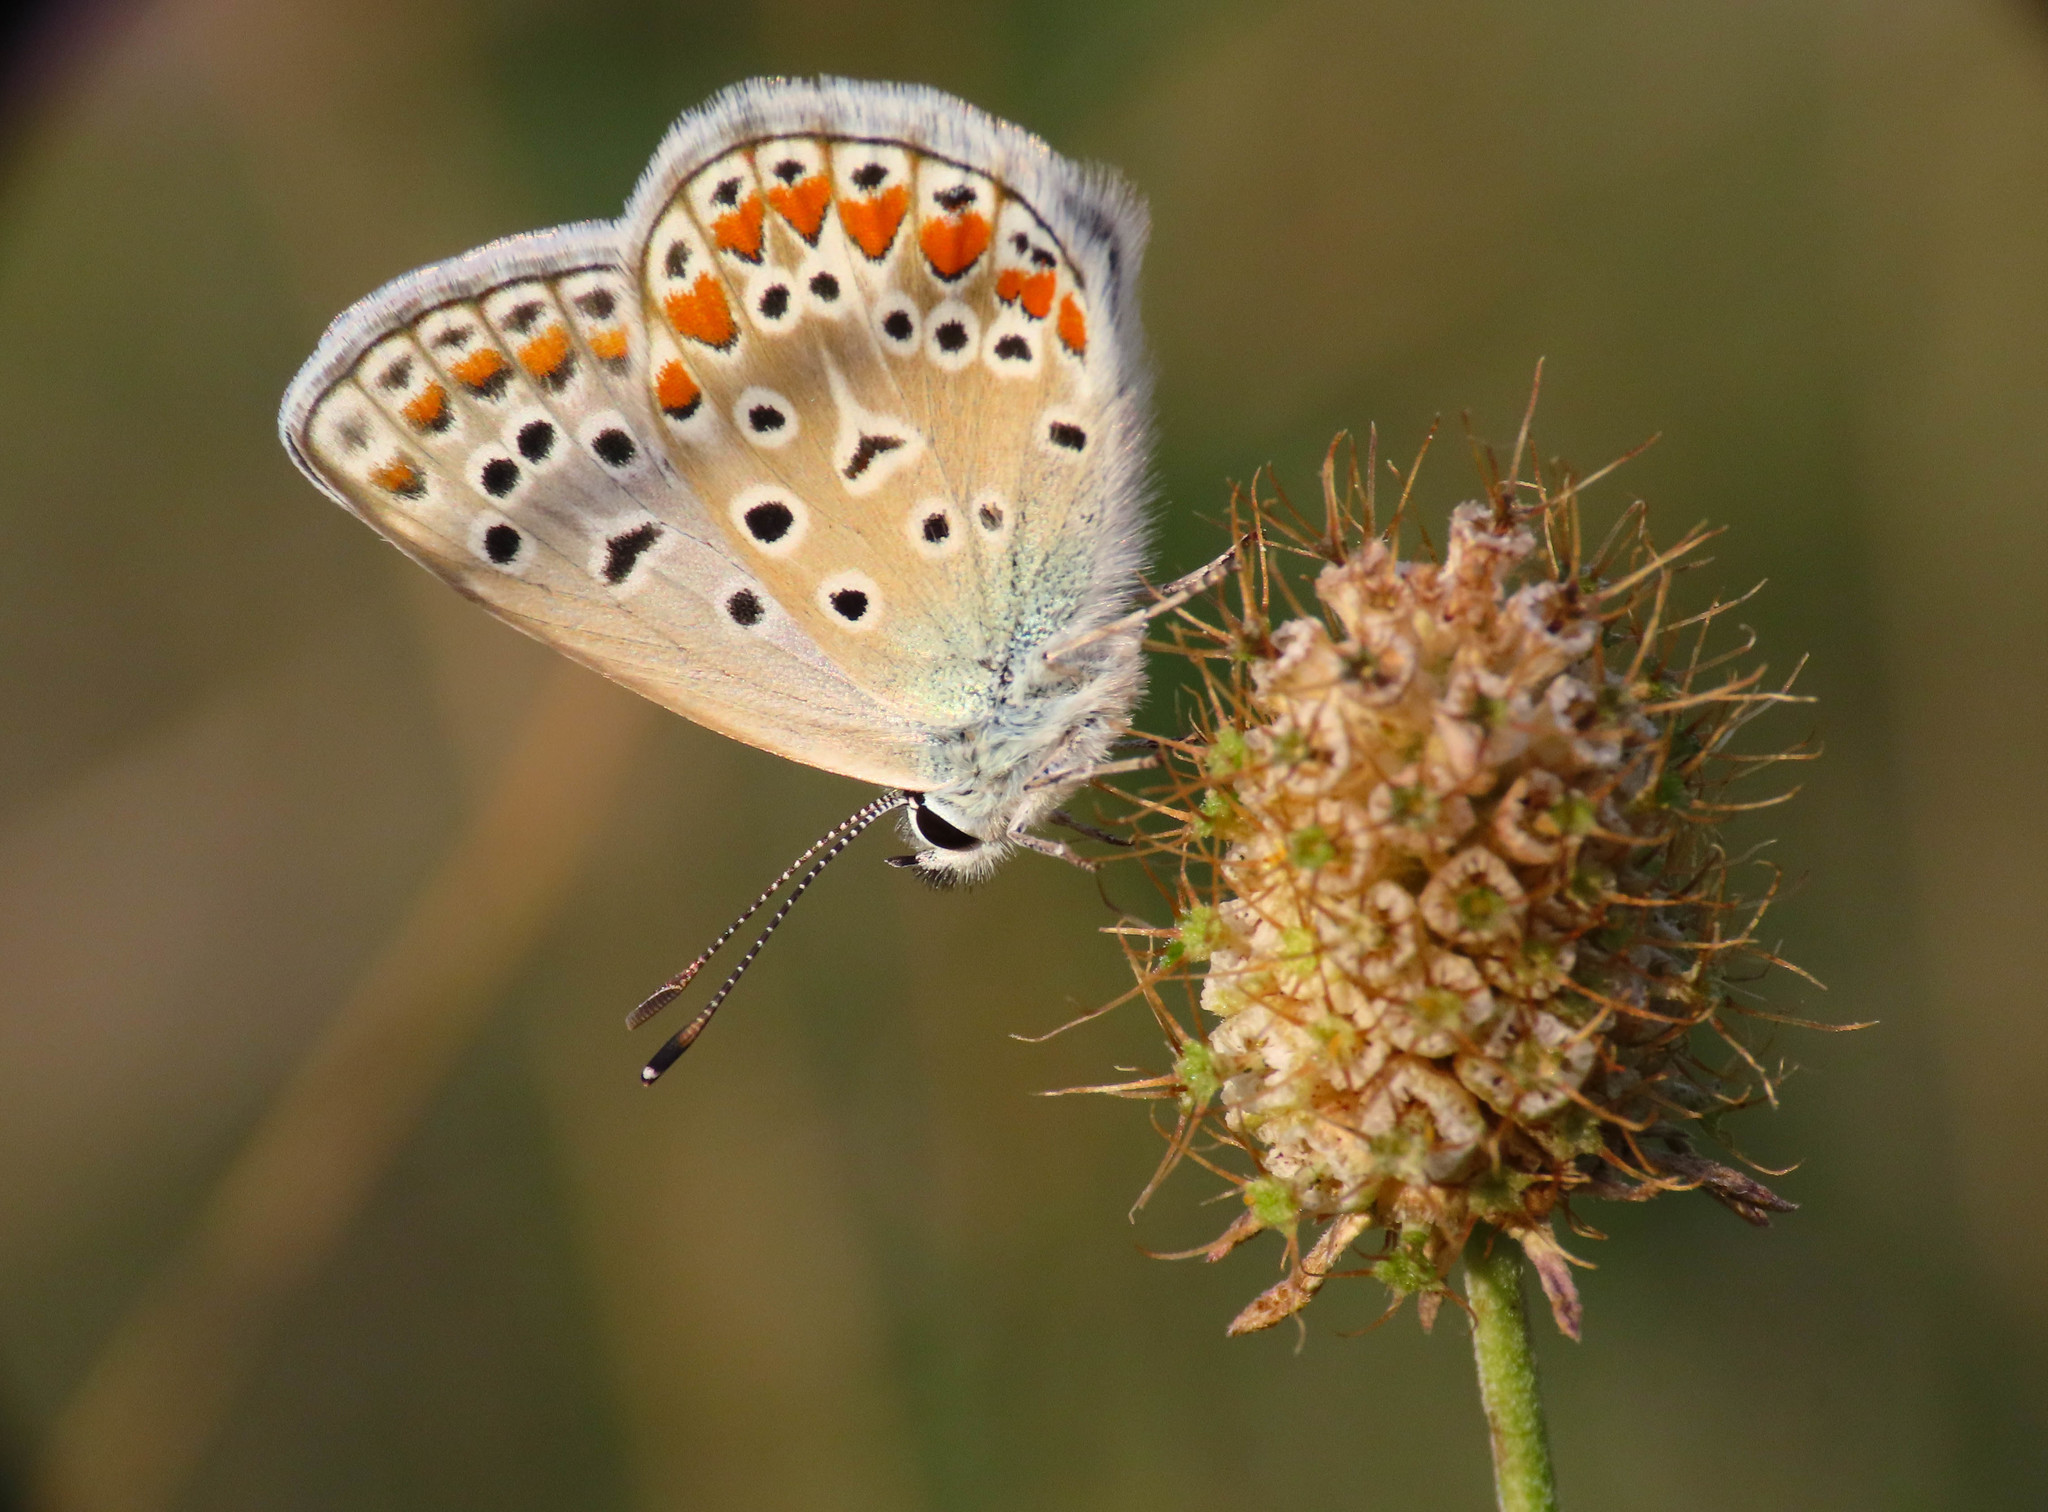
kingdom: Animalia
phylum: Arthropoda
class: Insecta
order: Lepidoptera
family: Lycaenidae
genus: Polyommatus
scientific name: Polyommatus icarus
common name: Common blue
